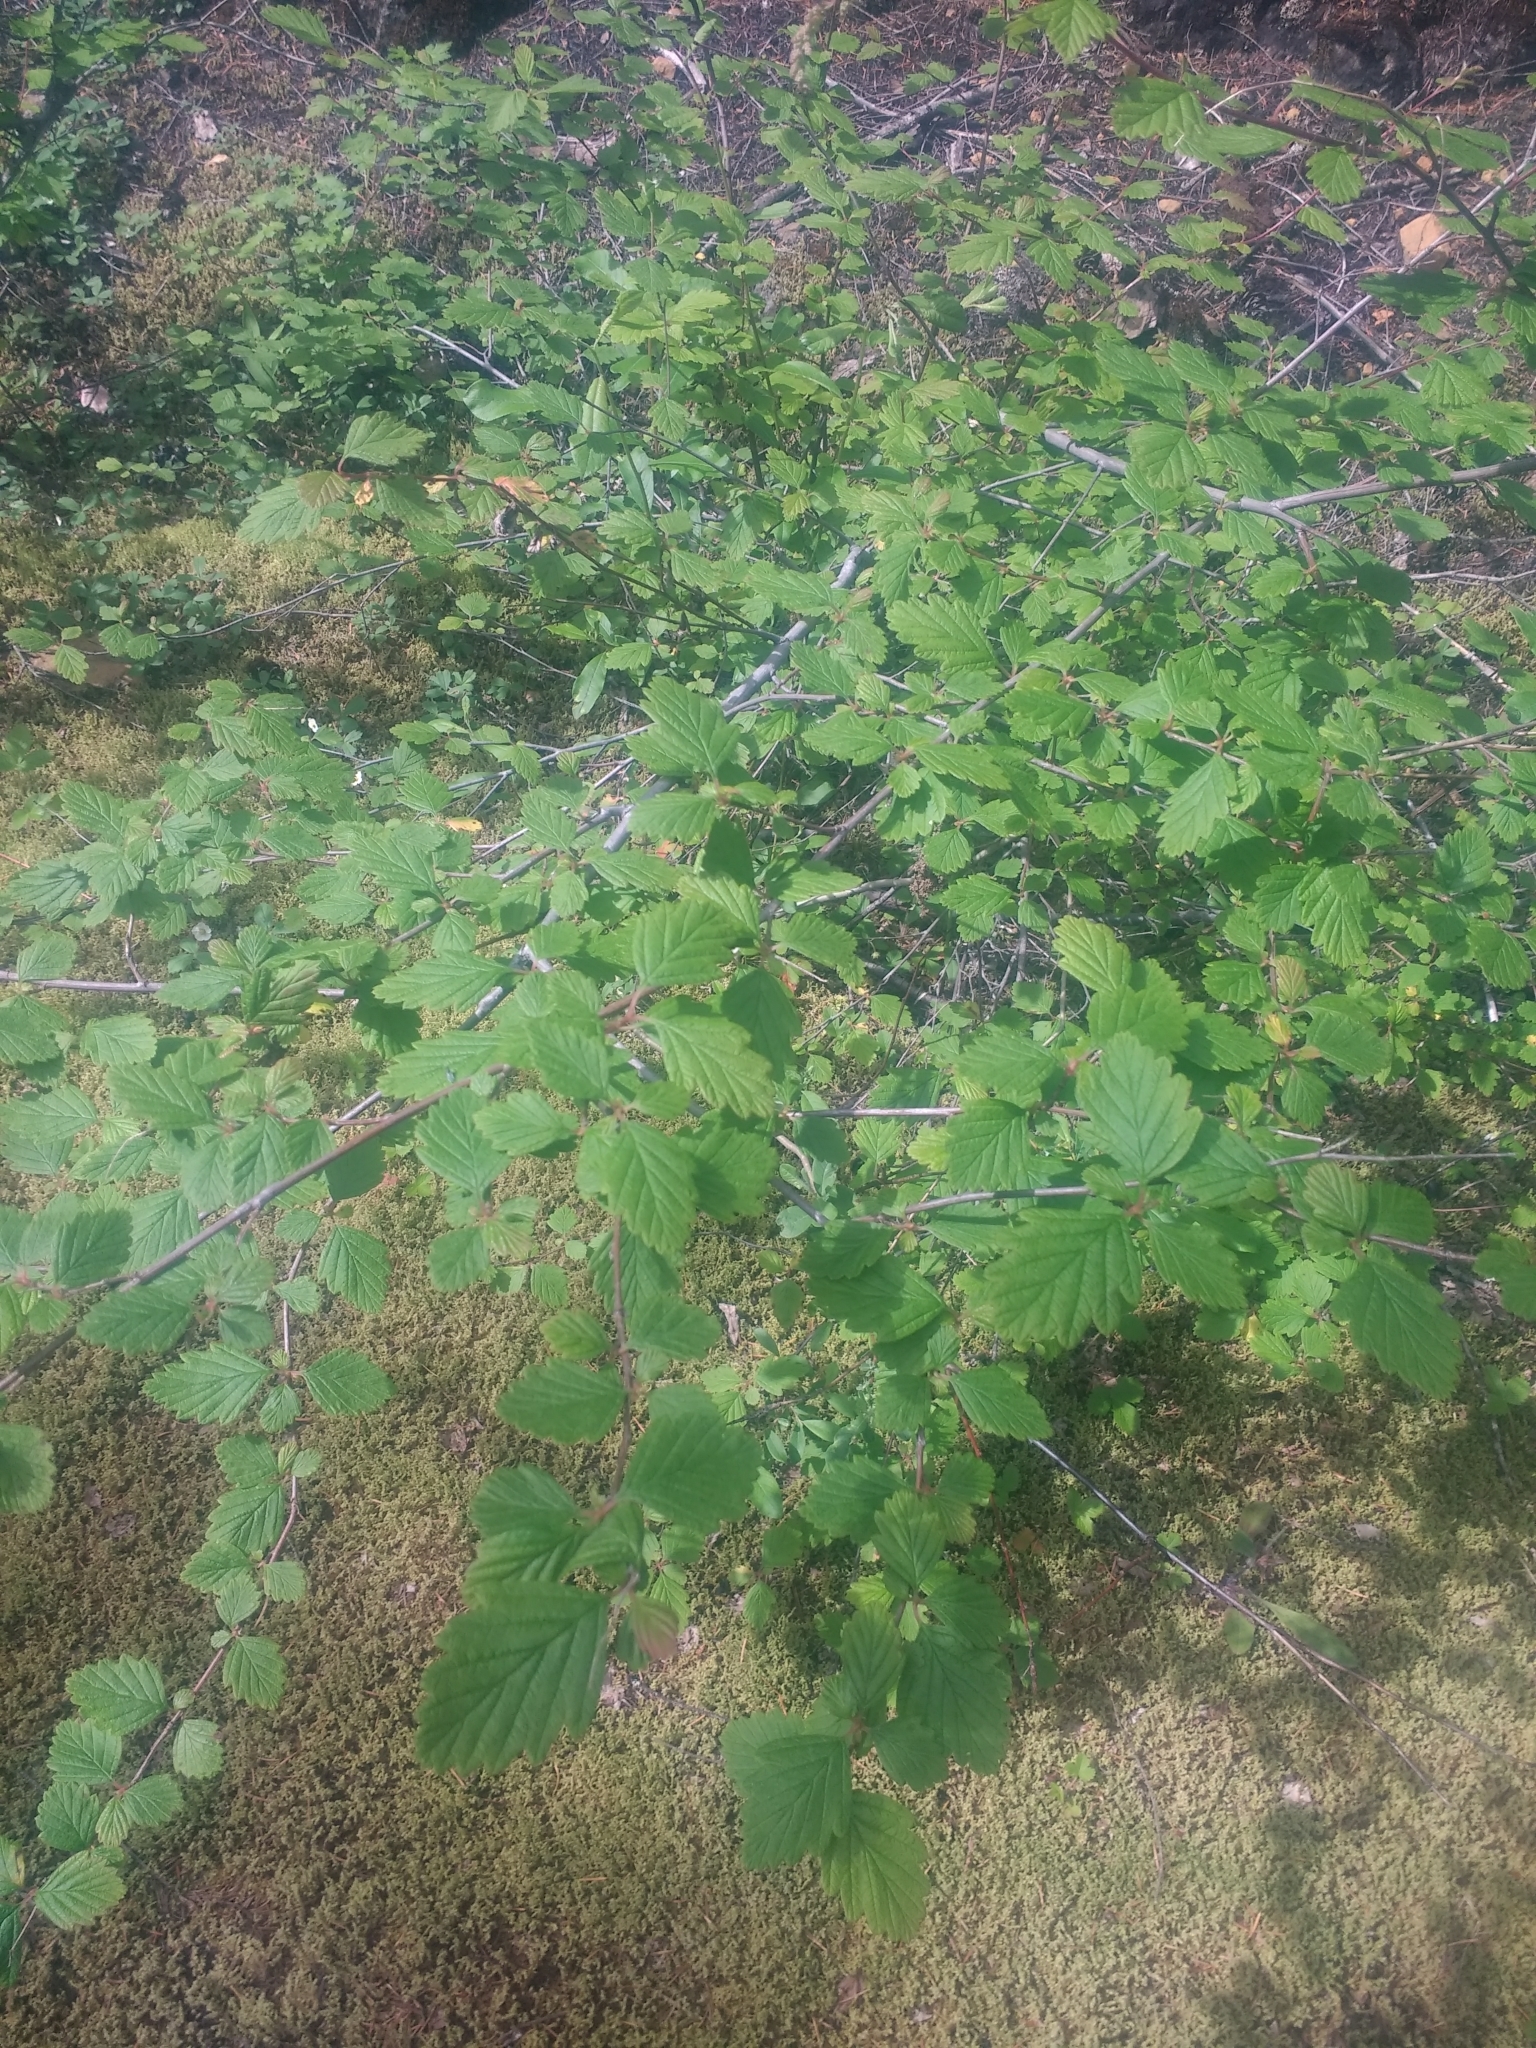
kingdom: Plantae
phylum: Tracheophyta
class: Magnoliopsida
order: Rosales
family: Rosaceae
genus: Holodiscus
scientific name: Holodiscus discolor
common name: Oceanspray
